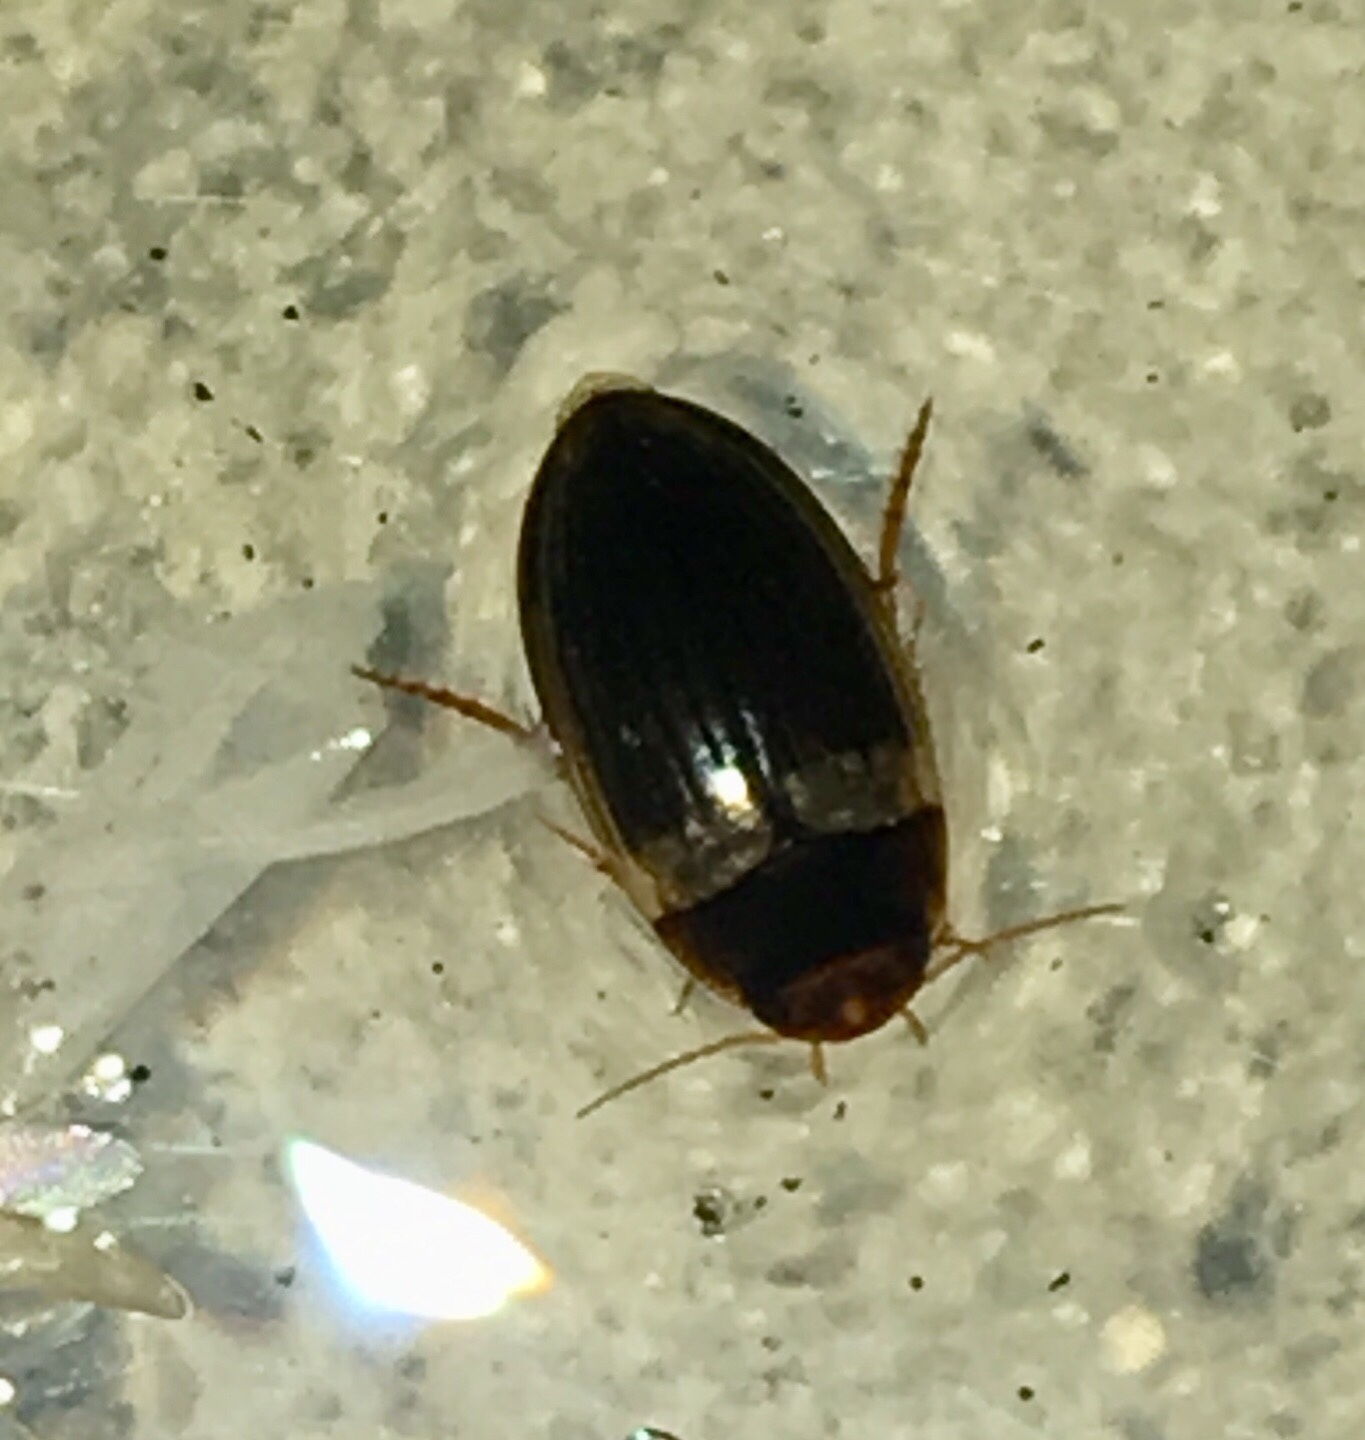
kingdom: Animalia
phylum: Arthropoda
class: Insecta
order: Coleoptera
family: Dytiscidae
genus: Copelatus
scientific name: Copelatus cubaensis
